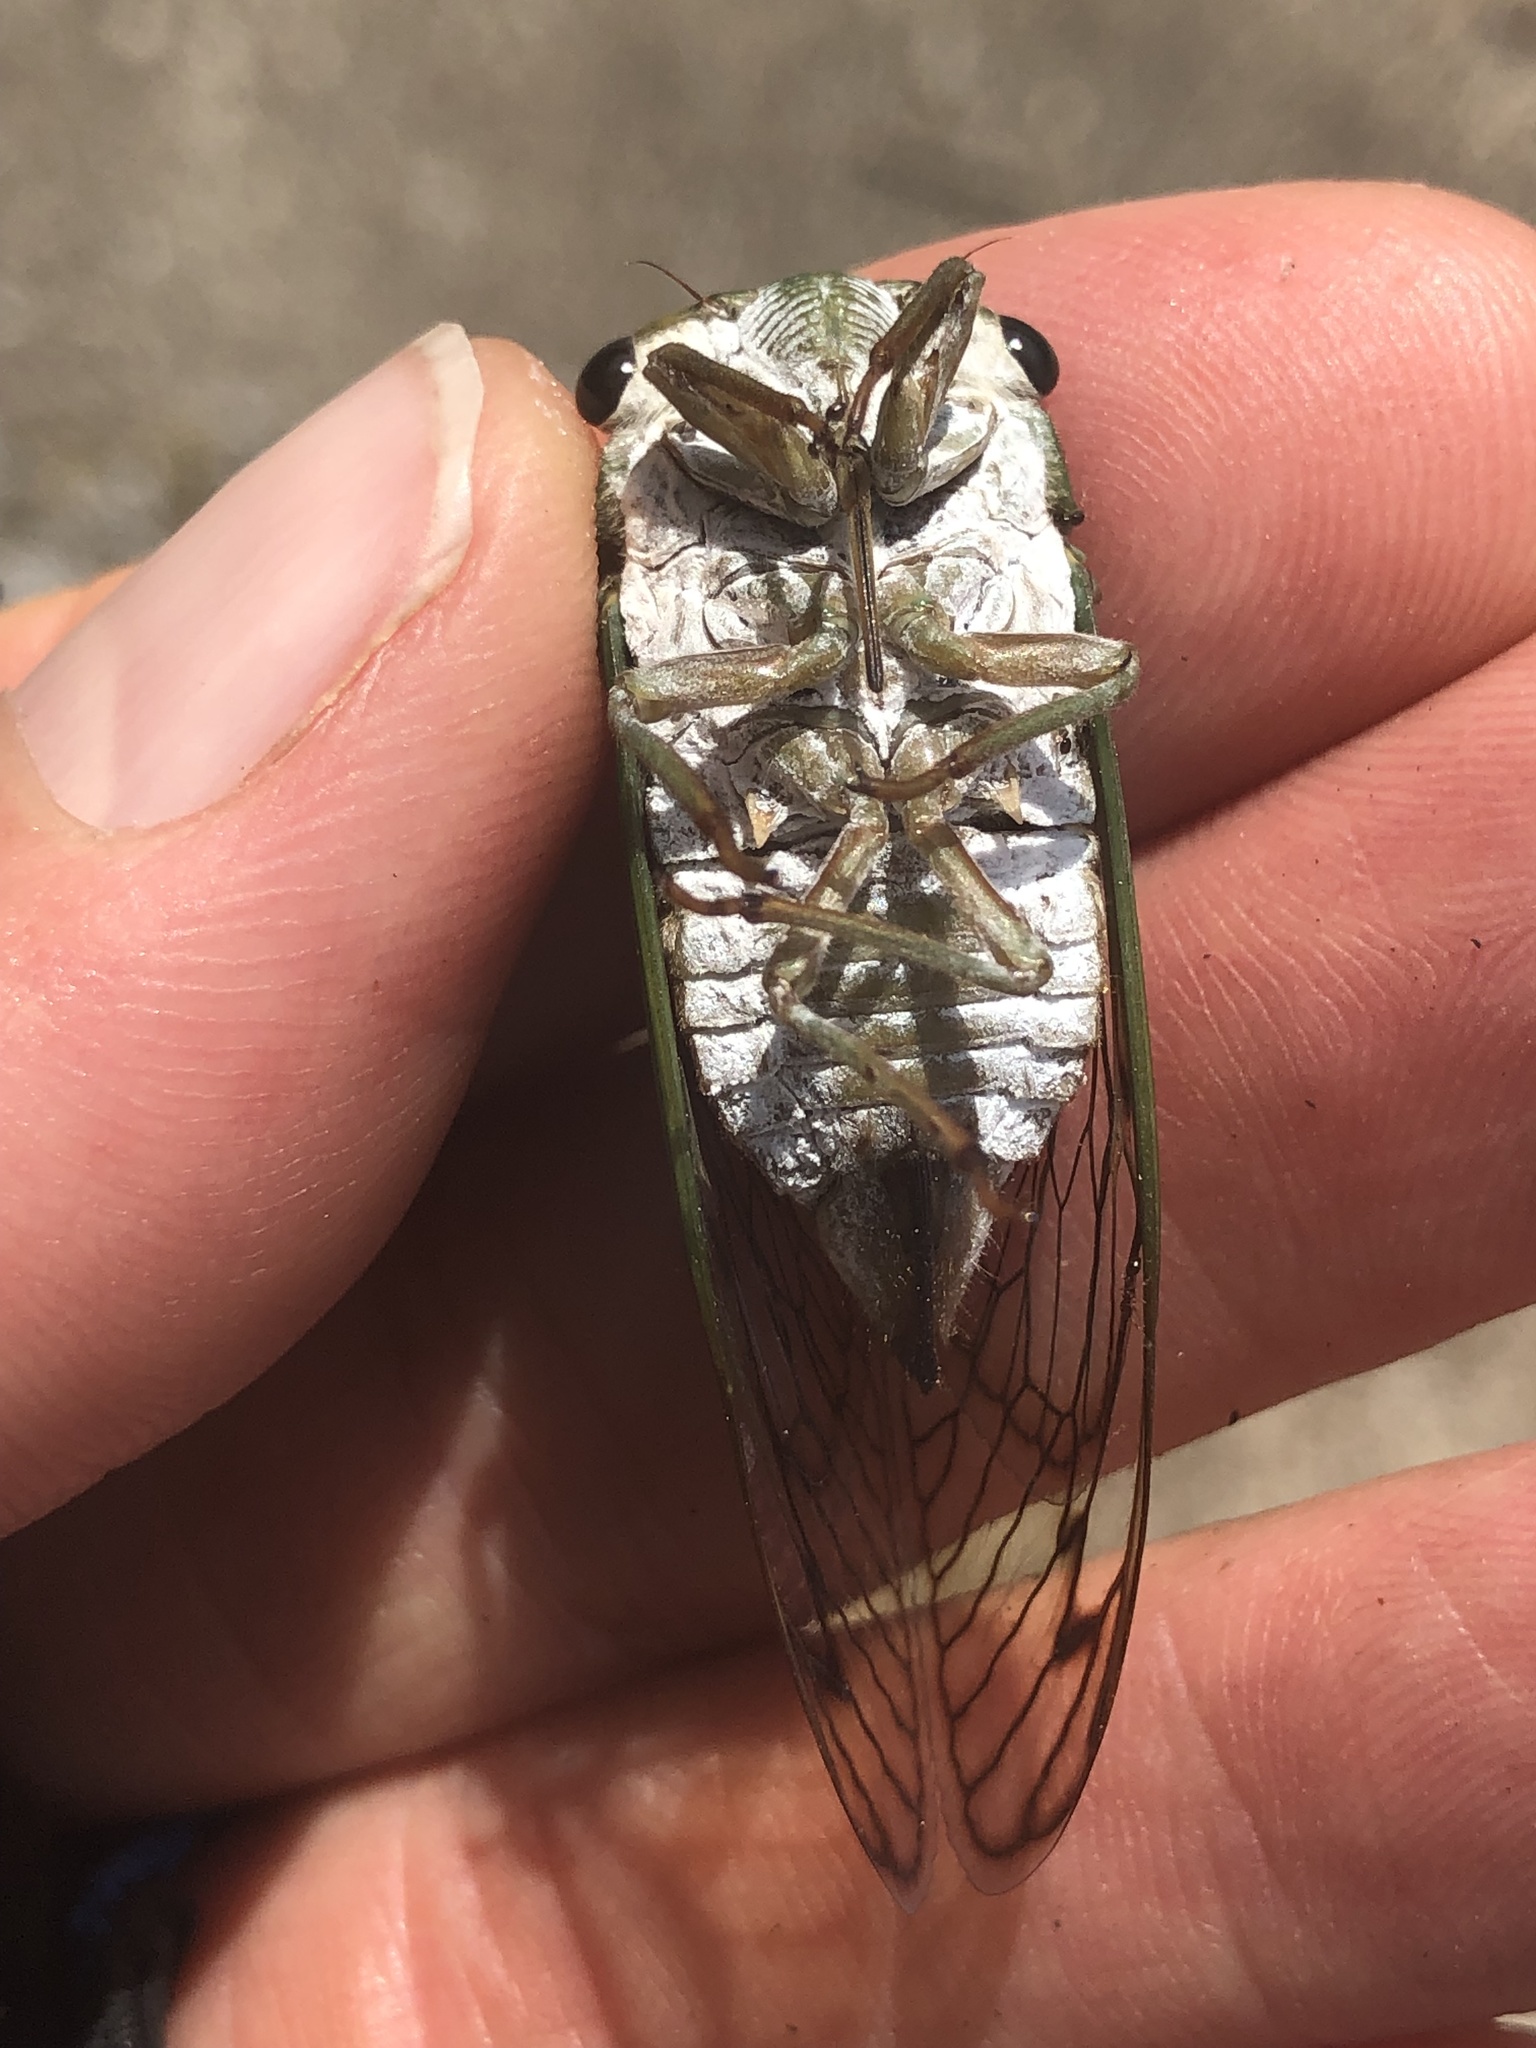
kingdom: Animalia
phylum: Arthropoda
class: Insecta
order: Hemiptera
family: Cicadidae
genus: Neotibicen
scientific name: Neotibicen superbus
